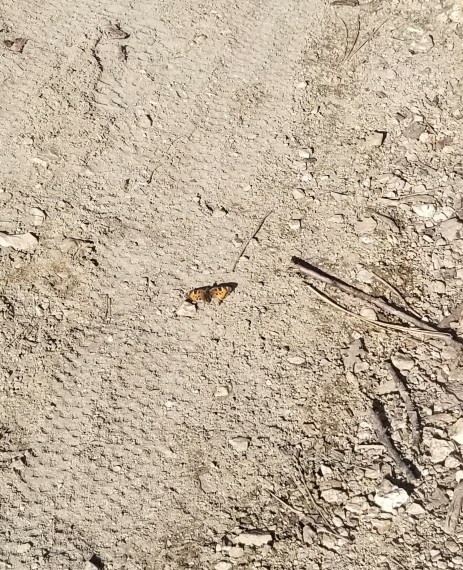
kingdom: Animalia
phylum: Arthropoda
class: Insecta
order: Lepidoptera
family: Nymphalidae
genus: Nymphalis
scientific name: Nymphalis californica
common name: California tortoiseshell
